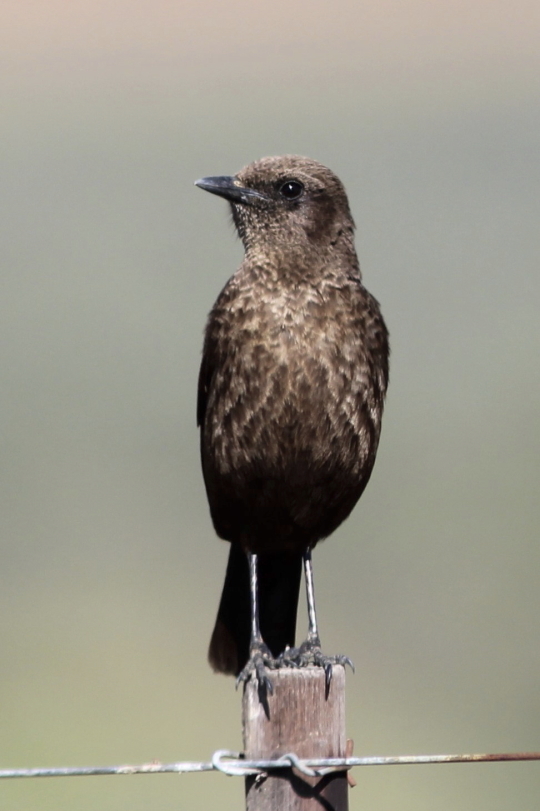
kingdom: Animalia
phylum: Chordata
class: Aves
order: Passeriformes
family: Muscicapidae
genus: Myrmecocichla
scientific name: Myrmecocichla formicivora
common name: Ant-eating chat
